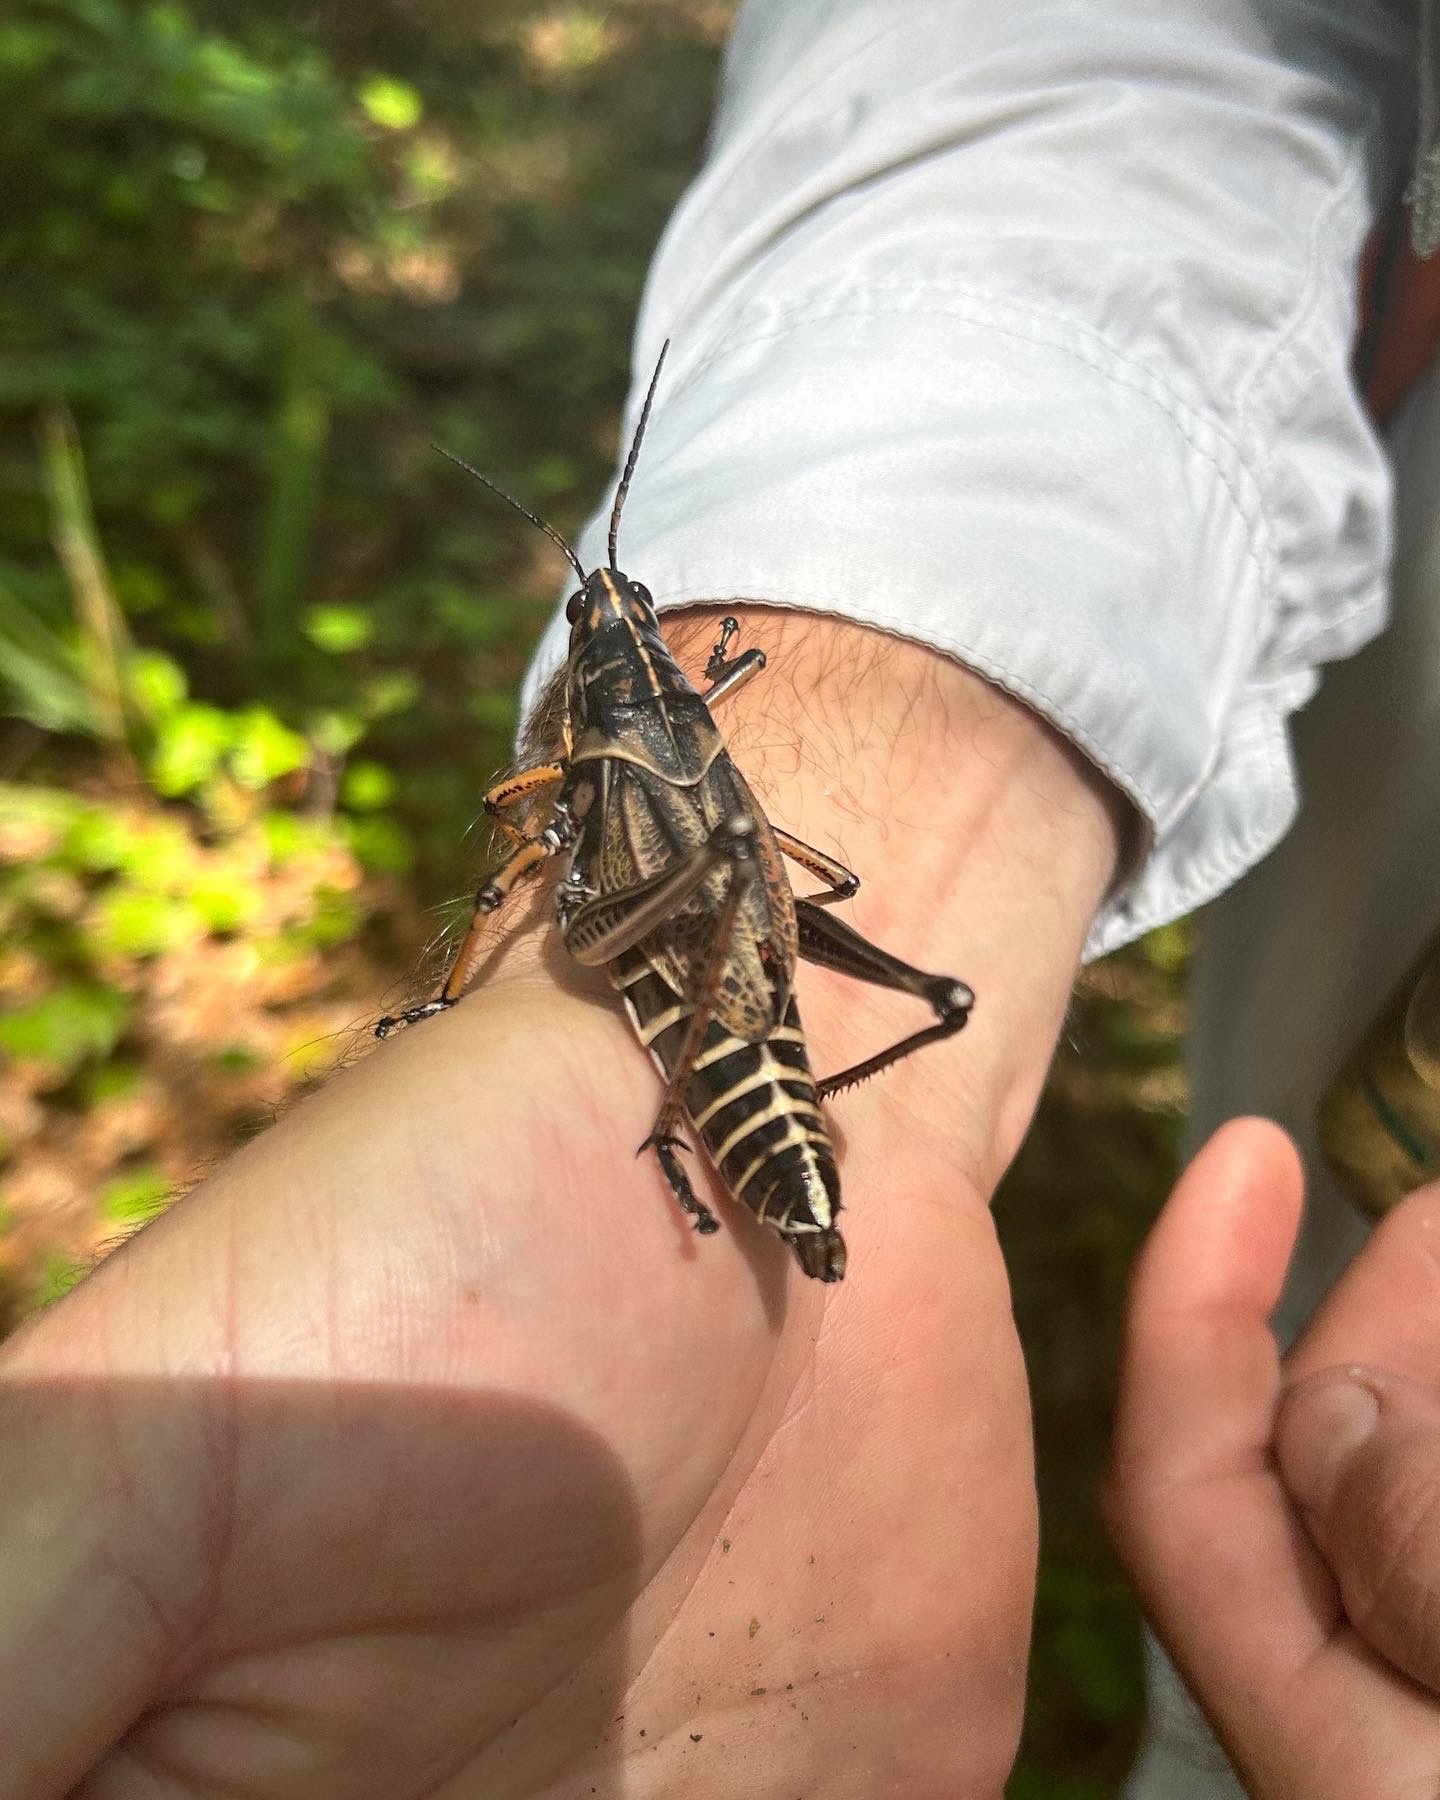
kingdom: Animalia
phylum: Arthropoda
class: Insecta
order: Orthoptera
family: Romaleidae
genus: Romalea
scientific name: Romalea microptera
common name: Eastern lubber grasshopper
